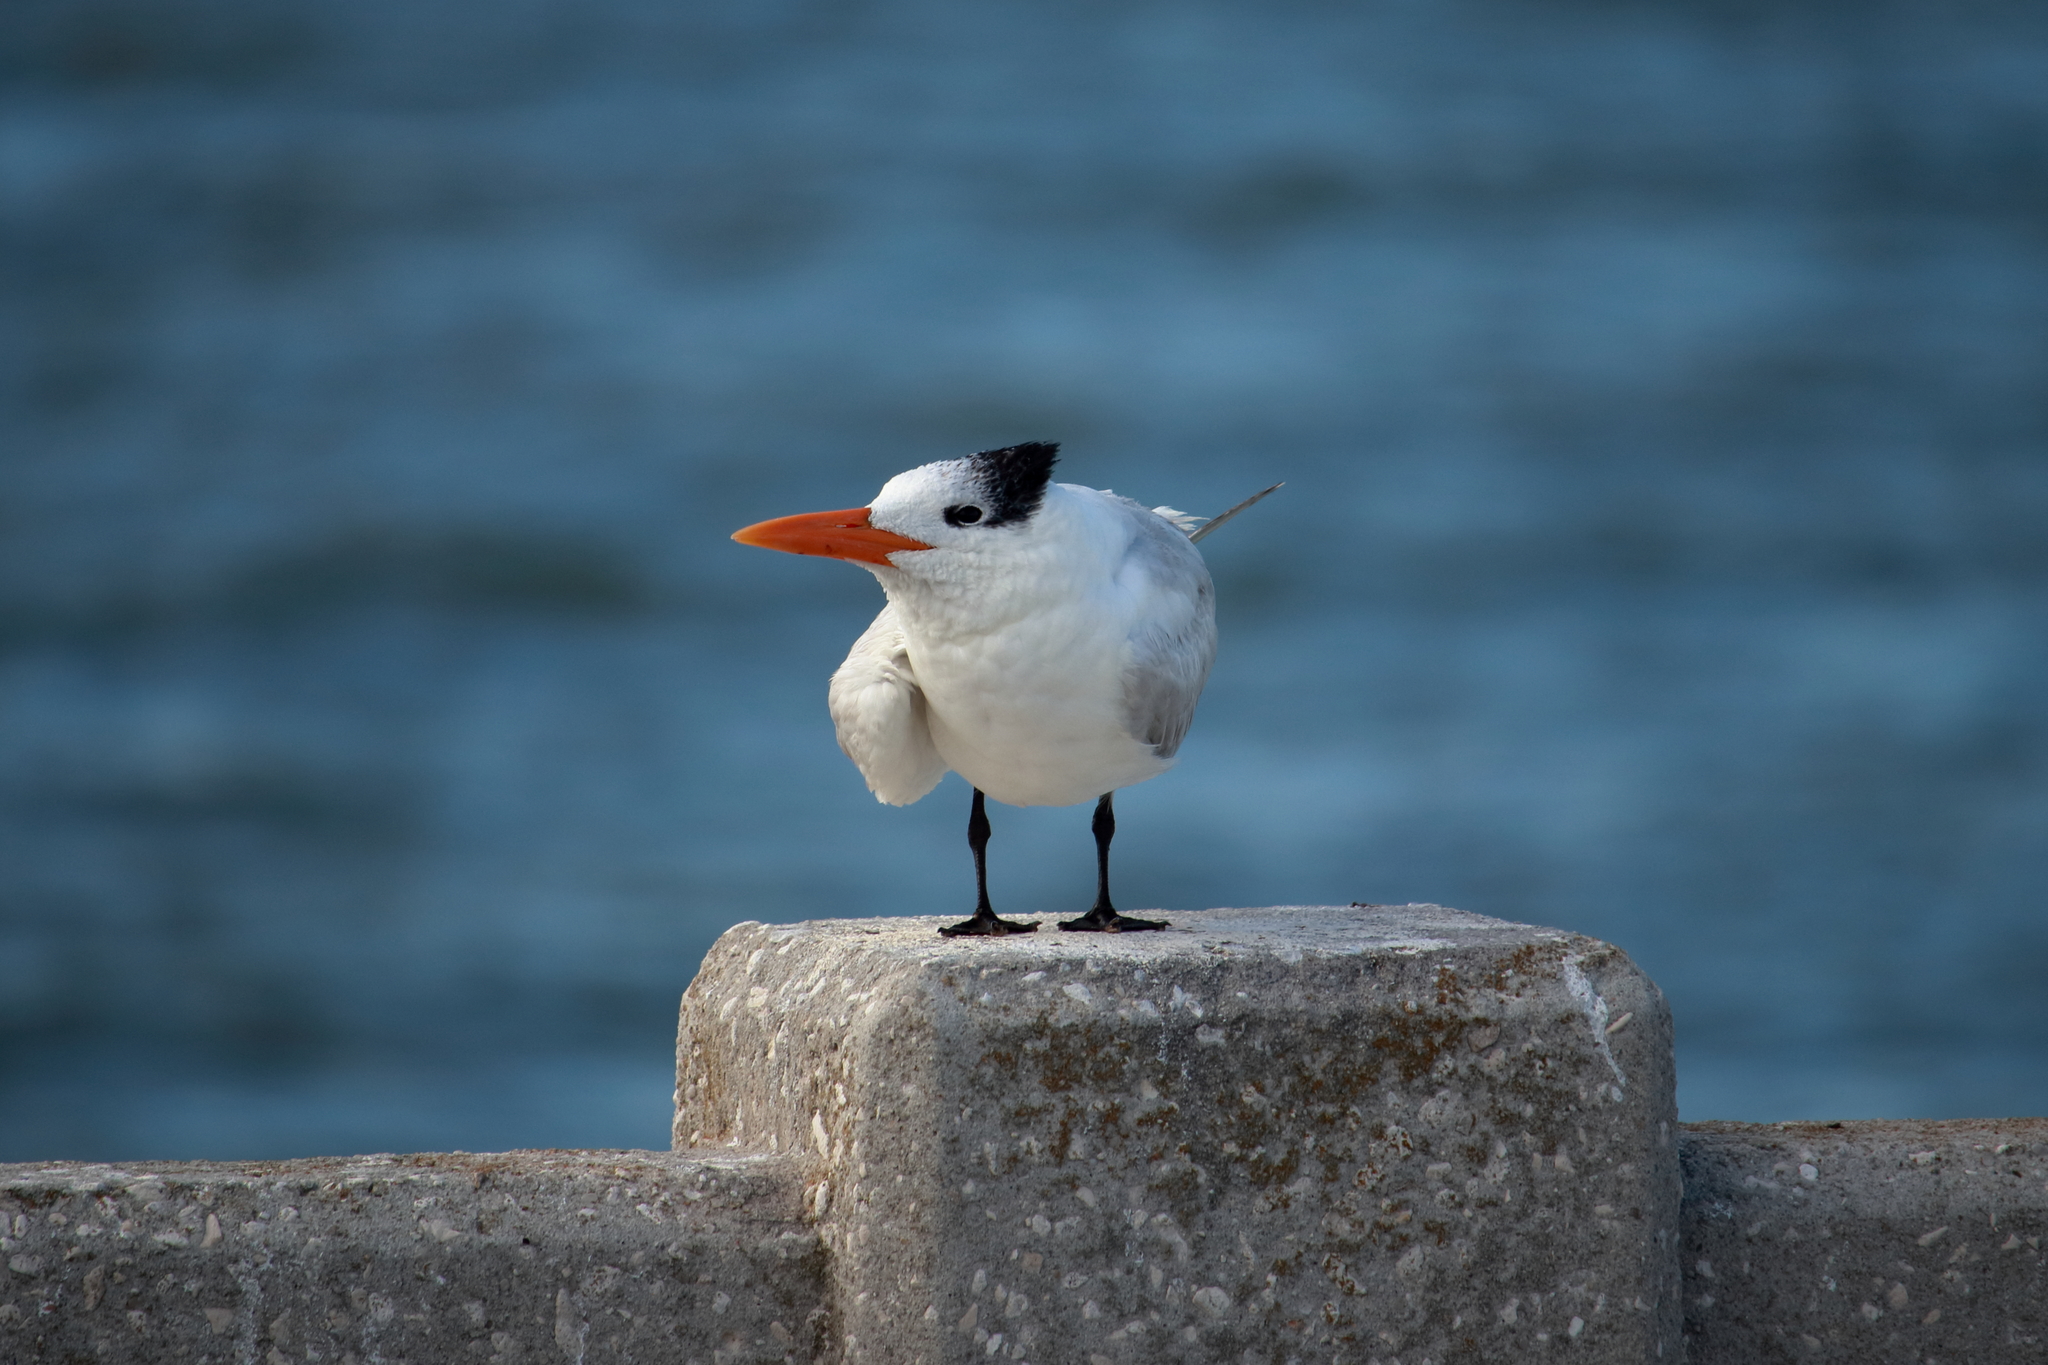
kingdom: Animalia
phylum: Chordata
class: Aves
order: Charadriiformes
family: Laridae
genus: Thalasseus
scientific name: Thalasseus maximus
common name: Royal tern
